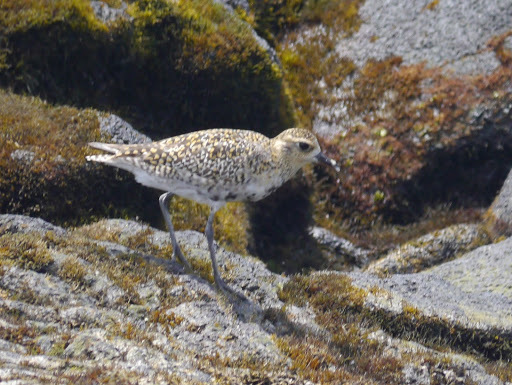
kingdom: Animalia
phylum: Chordata
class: Aves
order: Charadriiformes
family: Charadriidae
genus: Pluvialis
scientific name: Pluvialis fulva
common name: Pacific golden plover
